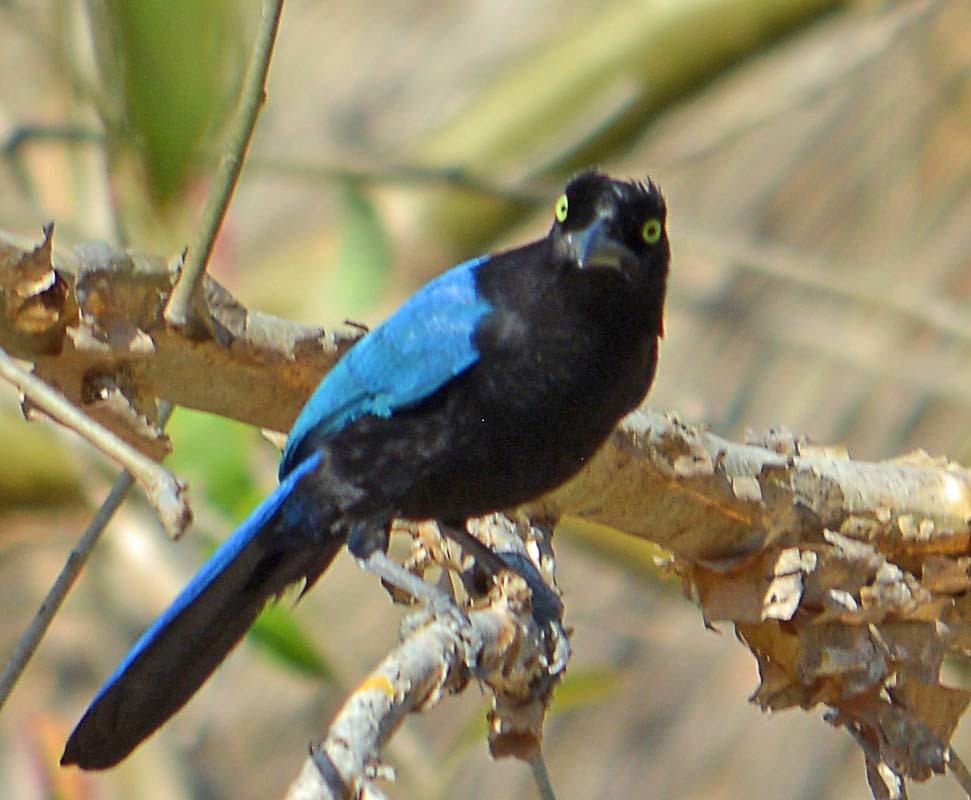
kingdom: Animalia
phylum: Chordata
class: Aves
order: Passeriformes
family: Corvidae
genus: Cyanocorax
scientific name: Cyanocorax sanblasianus
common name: San blas jay
